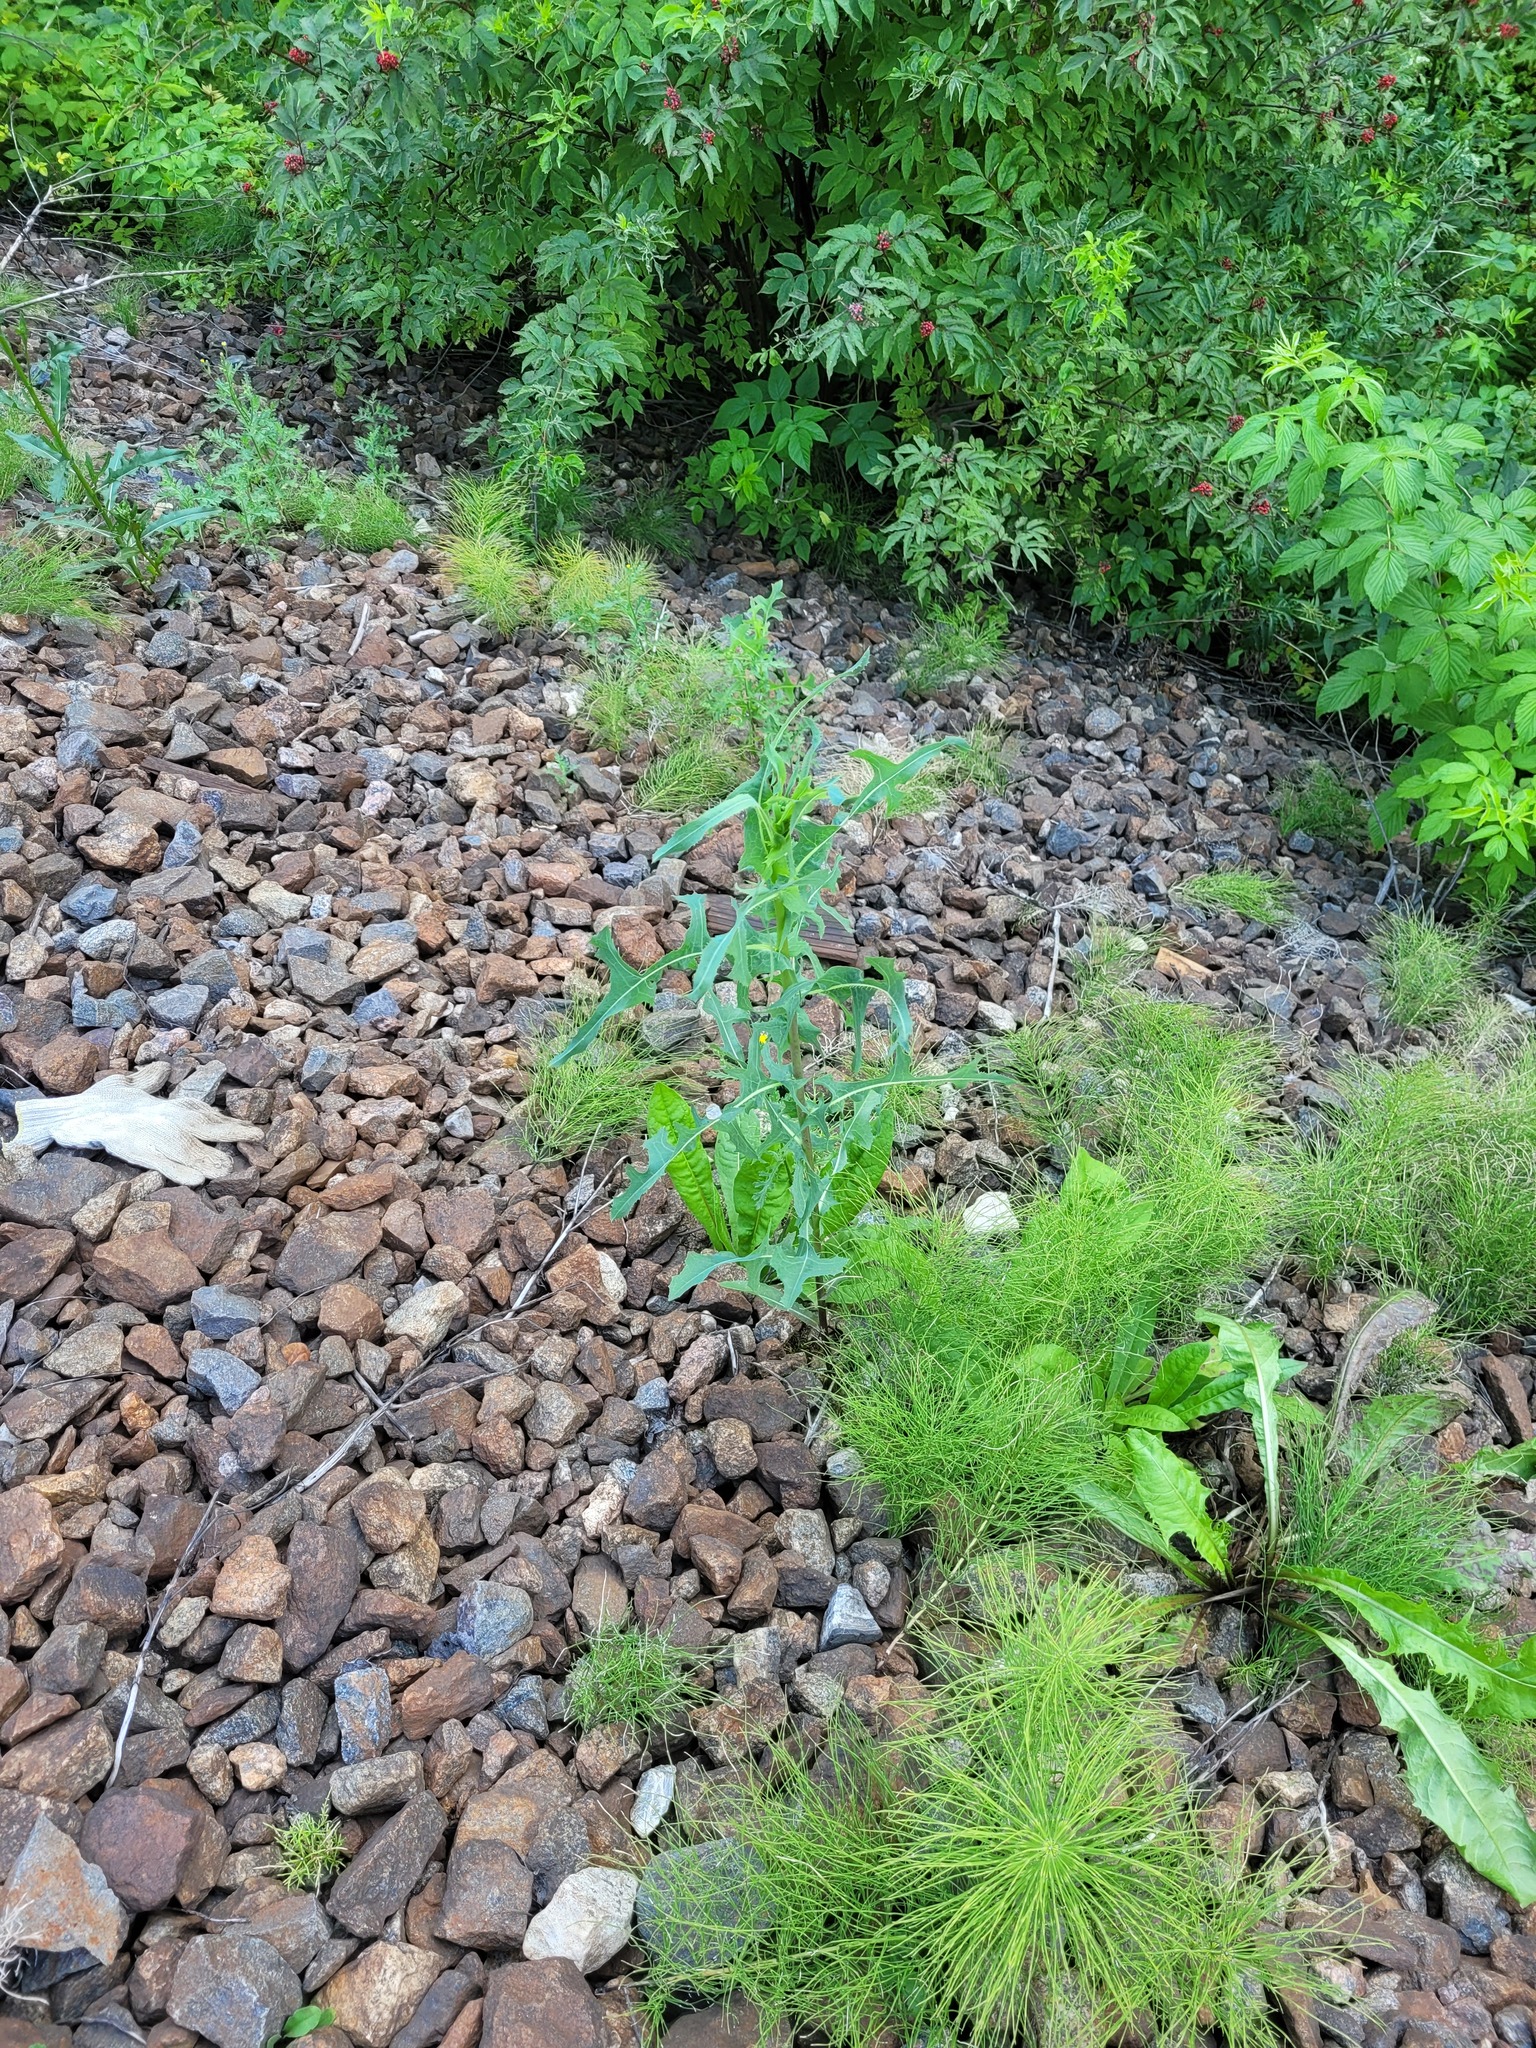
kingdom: Plantae
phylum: Tracheophyta
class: Magnoliopsida
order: Asterales
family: Asteraceae
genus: Lactuca
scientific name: Lactuca serriola
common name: Prickly lettuce
